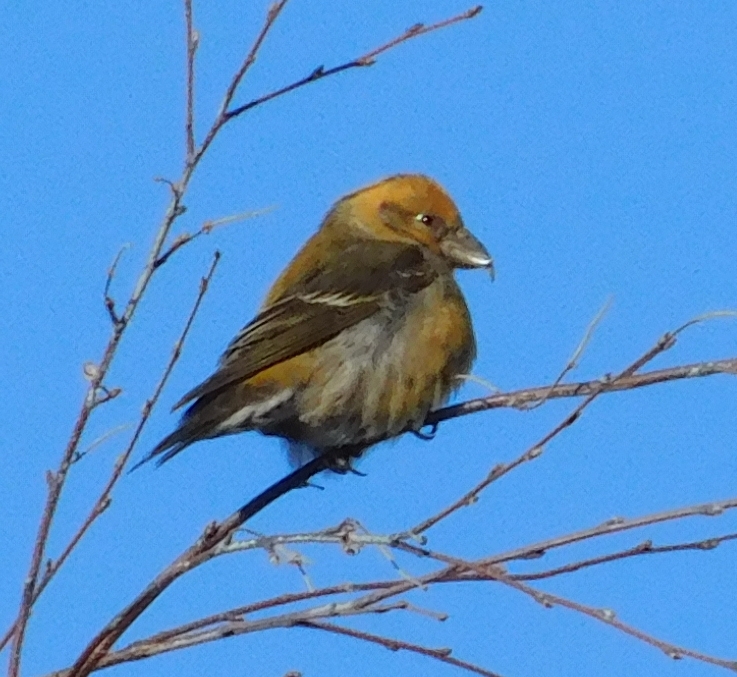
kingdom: Animalia
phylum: Chordata
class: Aves
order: Passeriformes
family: Fringillidae
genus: Loxia
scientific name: Loxia curvirostra
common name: Red crossbill
